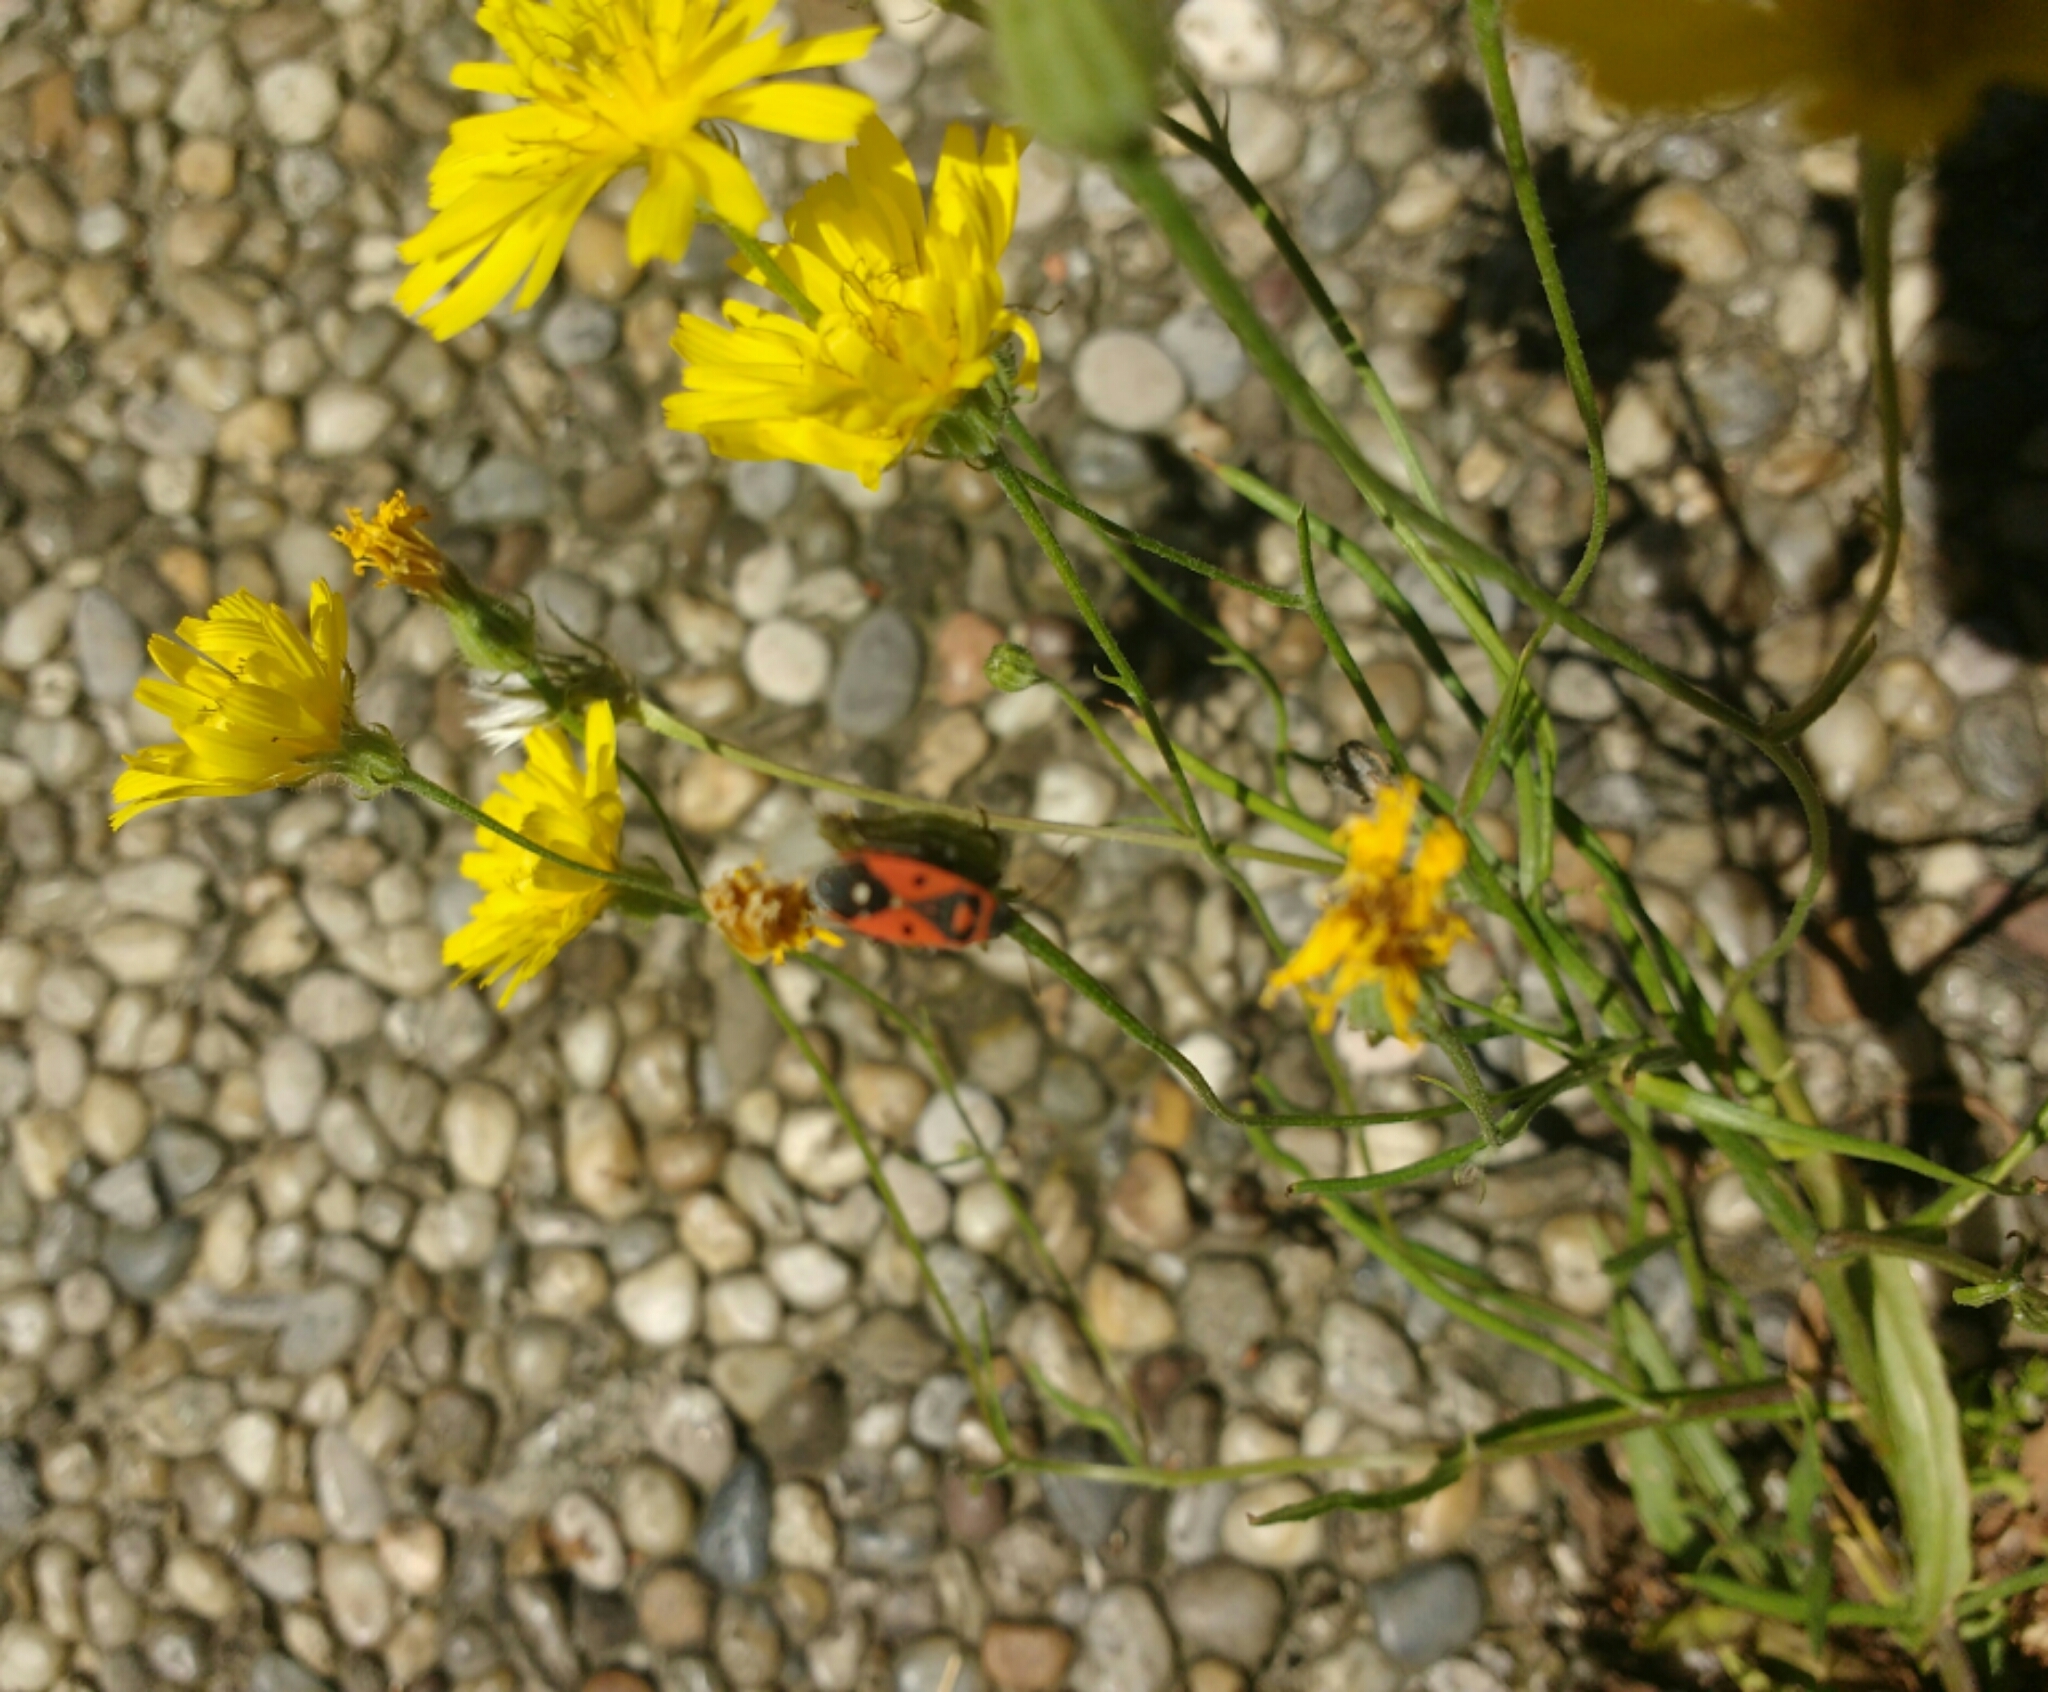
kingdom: Animalia
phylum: Arthropoda
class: Insecta
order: Hemiptera
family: Lygaeidae
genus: Melanocoryphus
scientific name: Melanocoryphus albomaculatus
